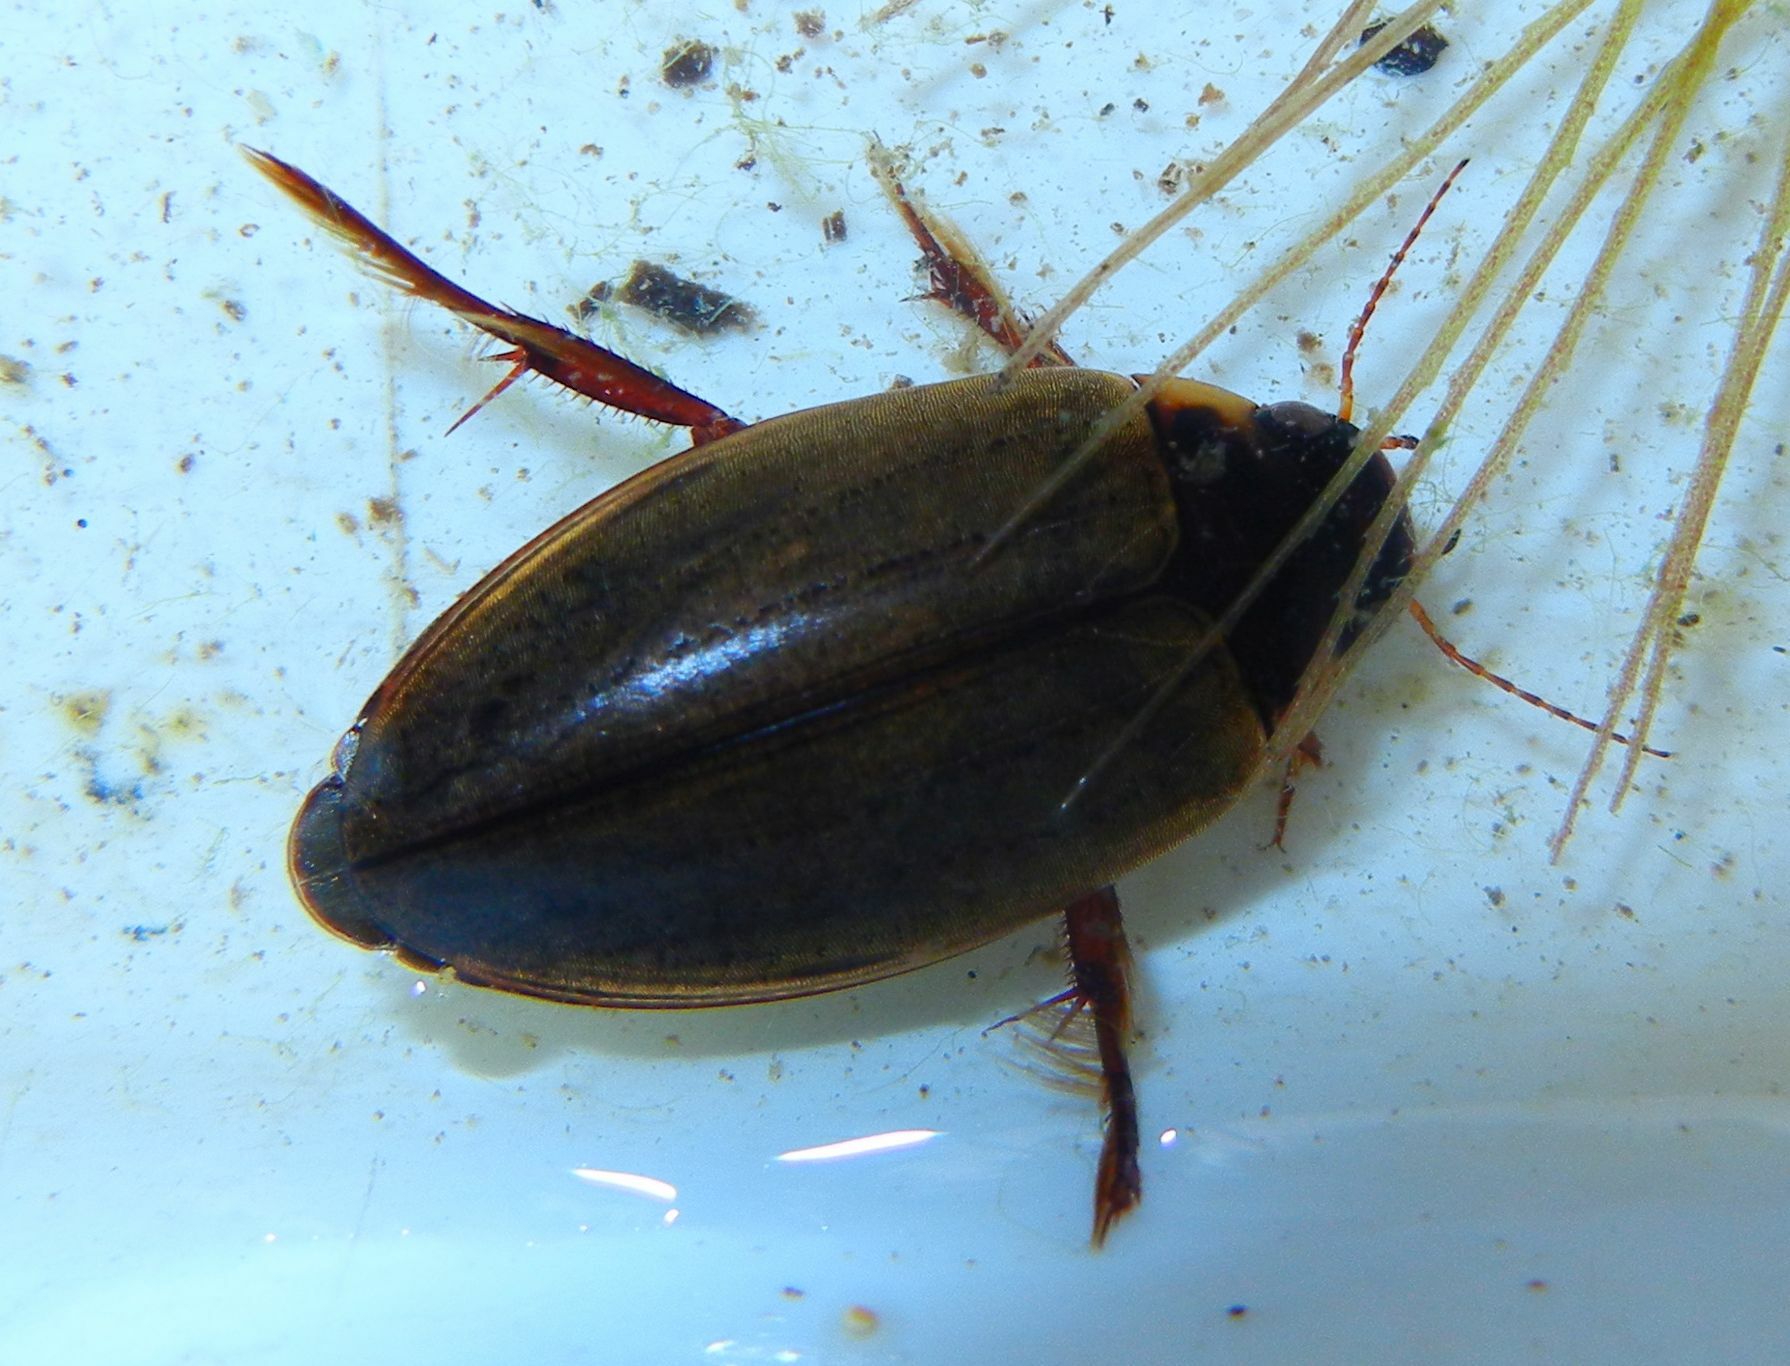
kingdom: Animalia
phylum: Arthropoda
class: Insecta
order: Coleoptera
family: Dytiscidae
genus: Colymbetes
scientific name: Colymbetes fuscus
